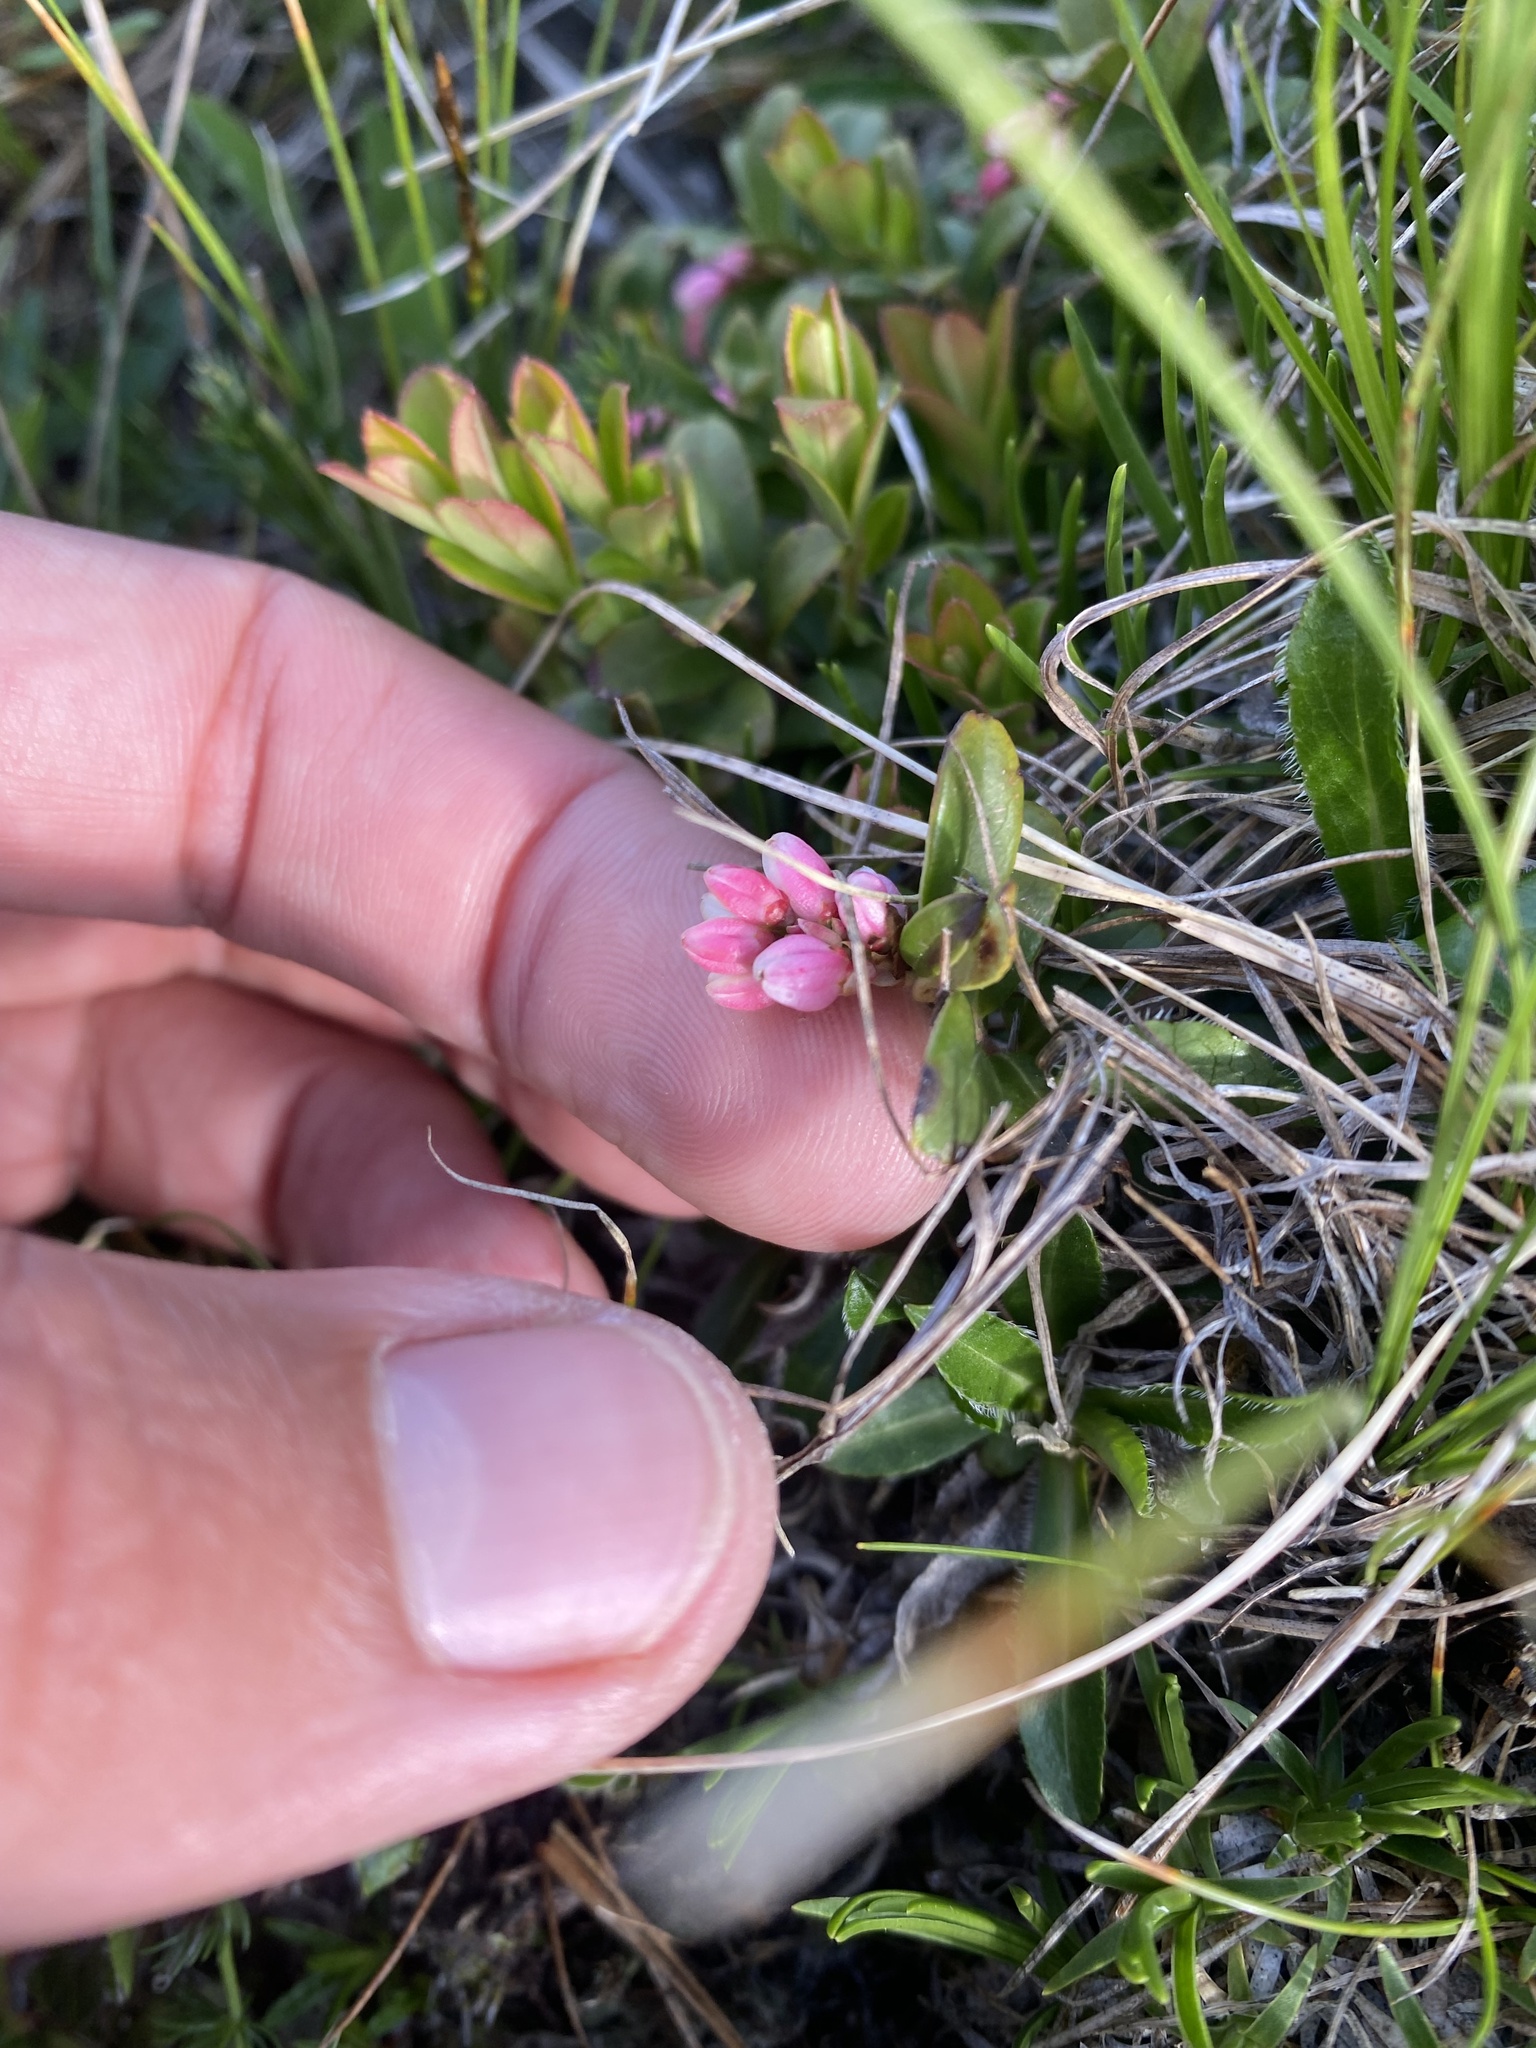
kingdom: Plantae
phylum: Tracheophyta
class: Magnoliopsida
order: Ericales
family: Ericaceae
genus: Vaccinium
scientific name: Vaccinium vitis-idaea
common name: Cowberry
